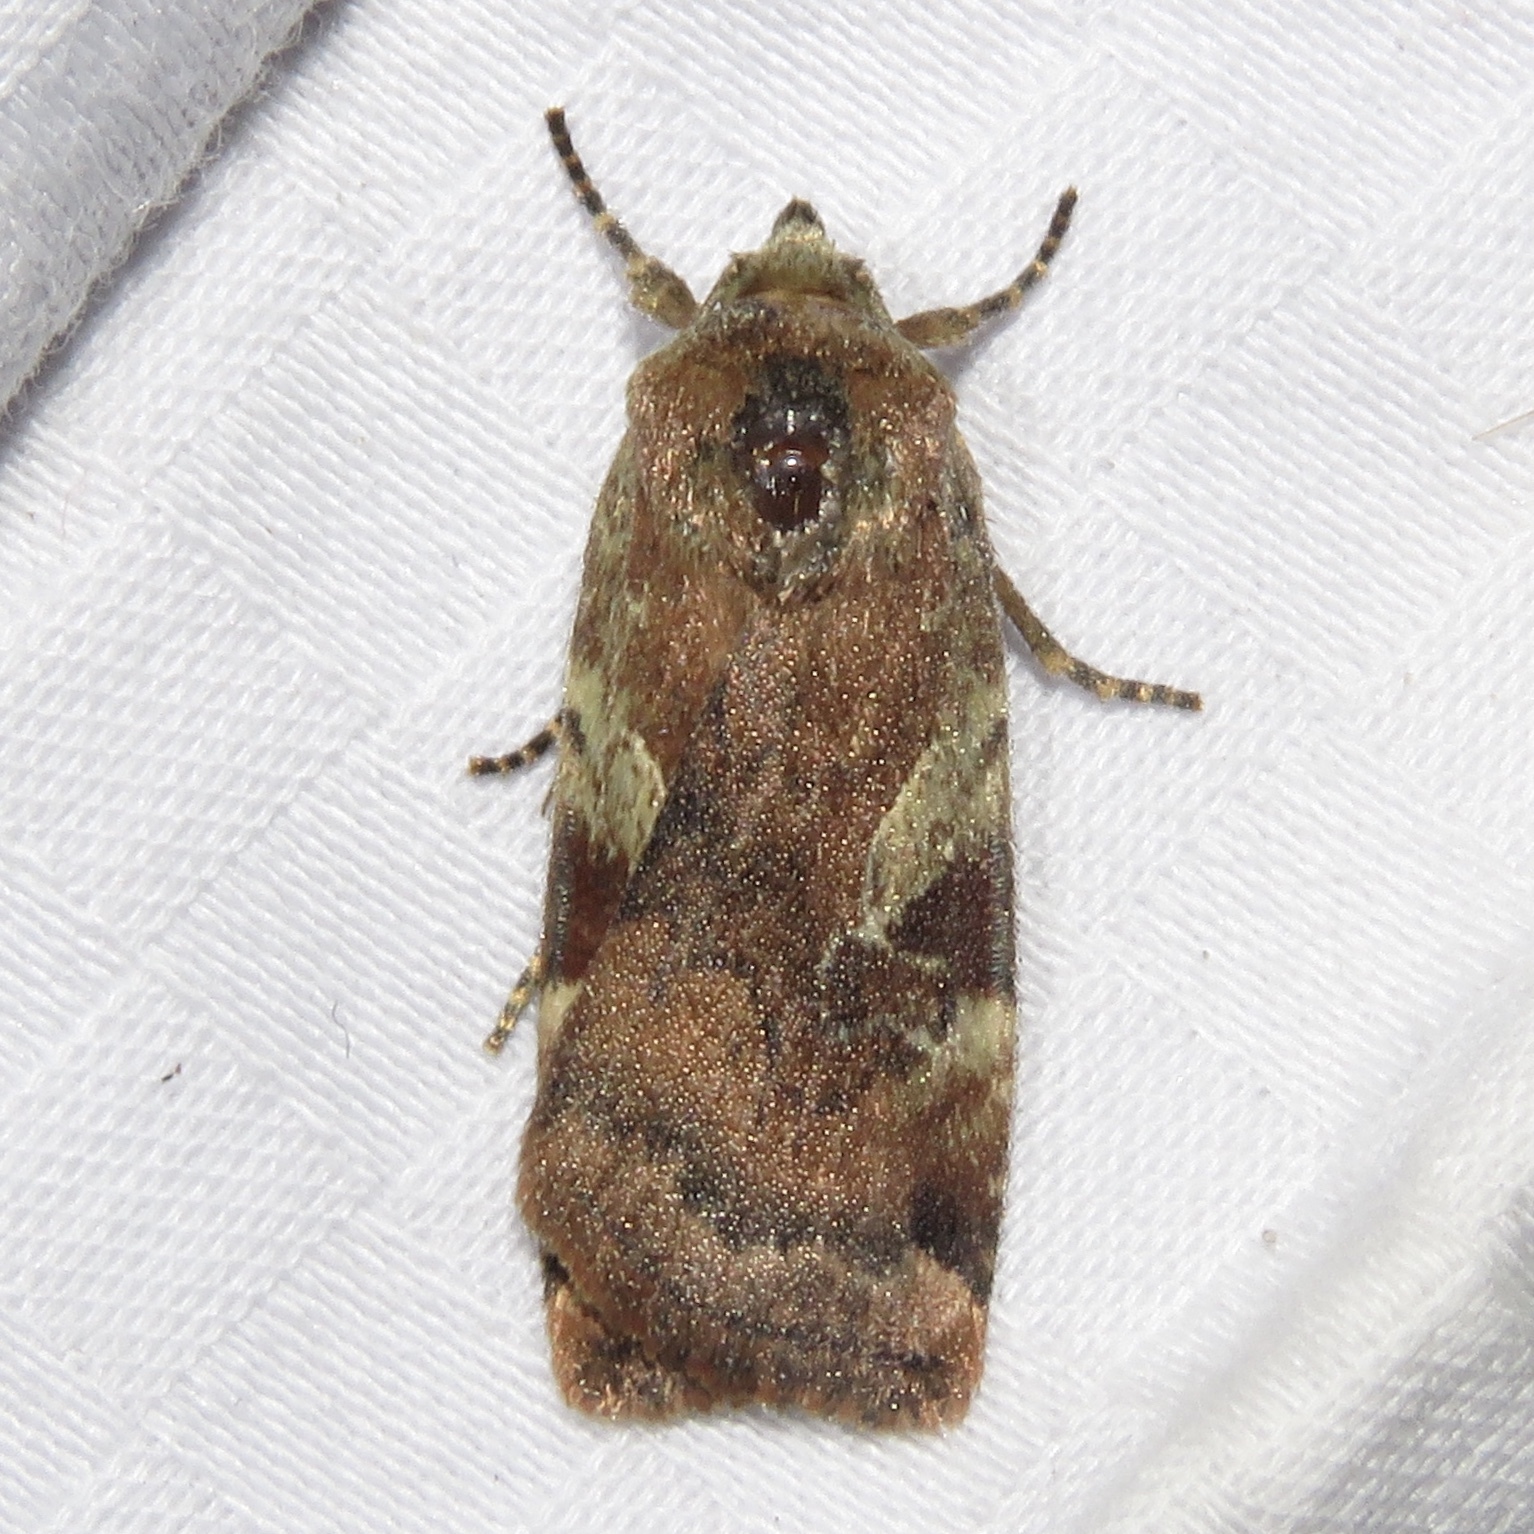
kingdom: Animalia
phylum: Arthropoda
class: Insecta
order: Lepidoptera
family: Noctuidae
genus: Cryptocala
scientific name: Cryptocala acadiensis
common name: Catocaline dart
